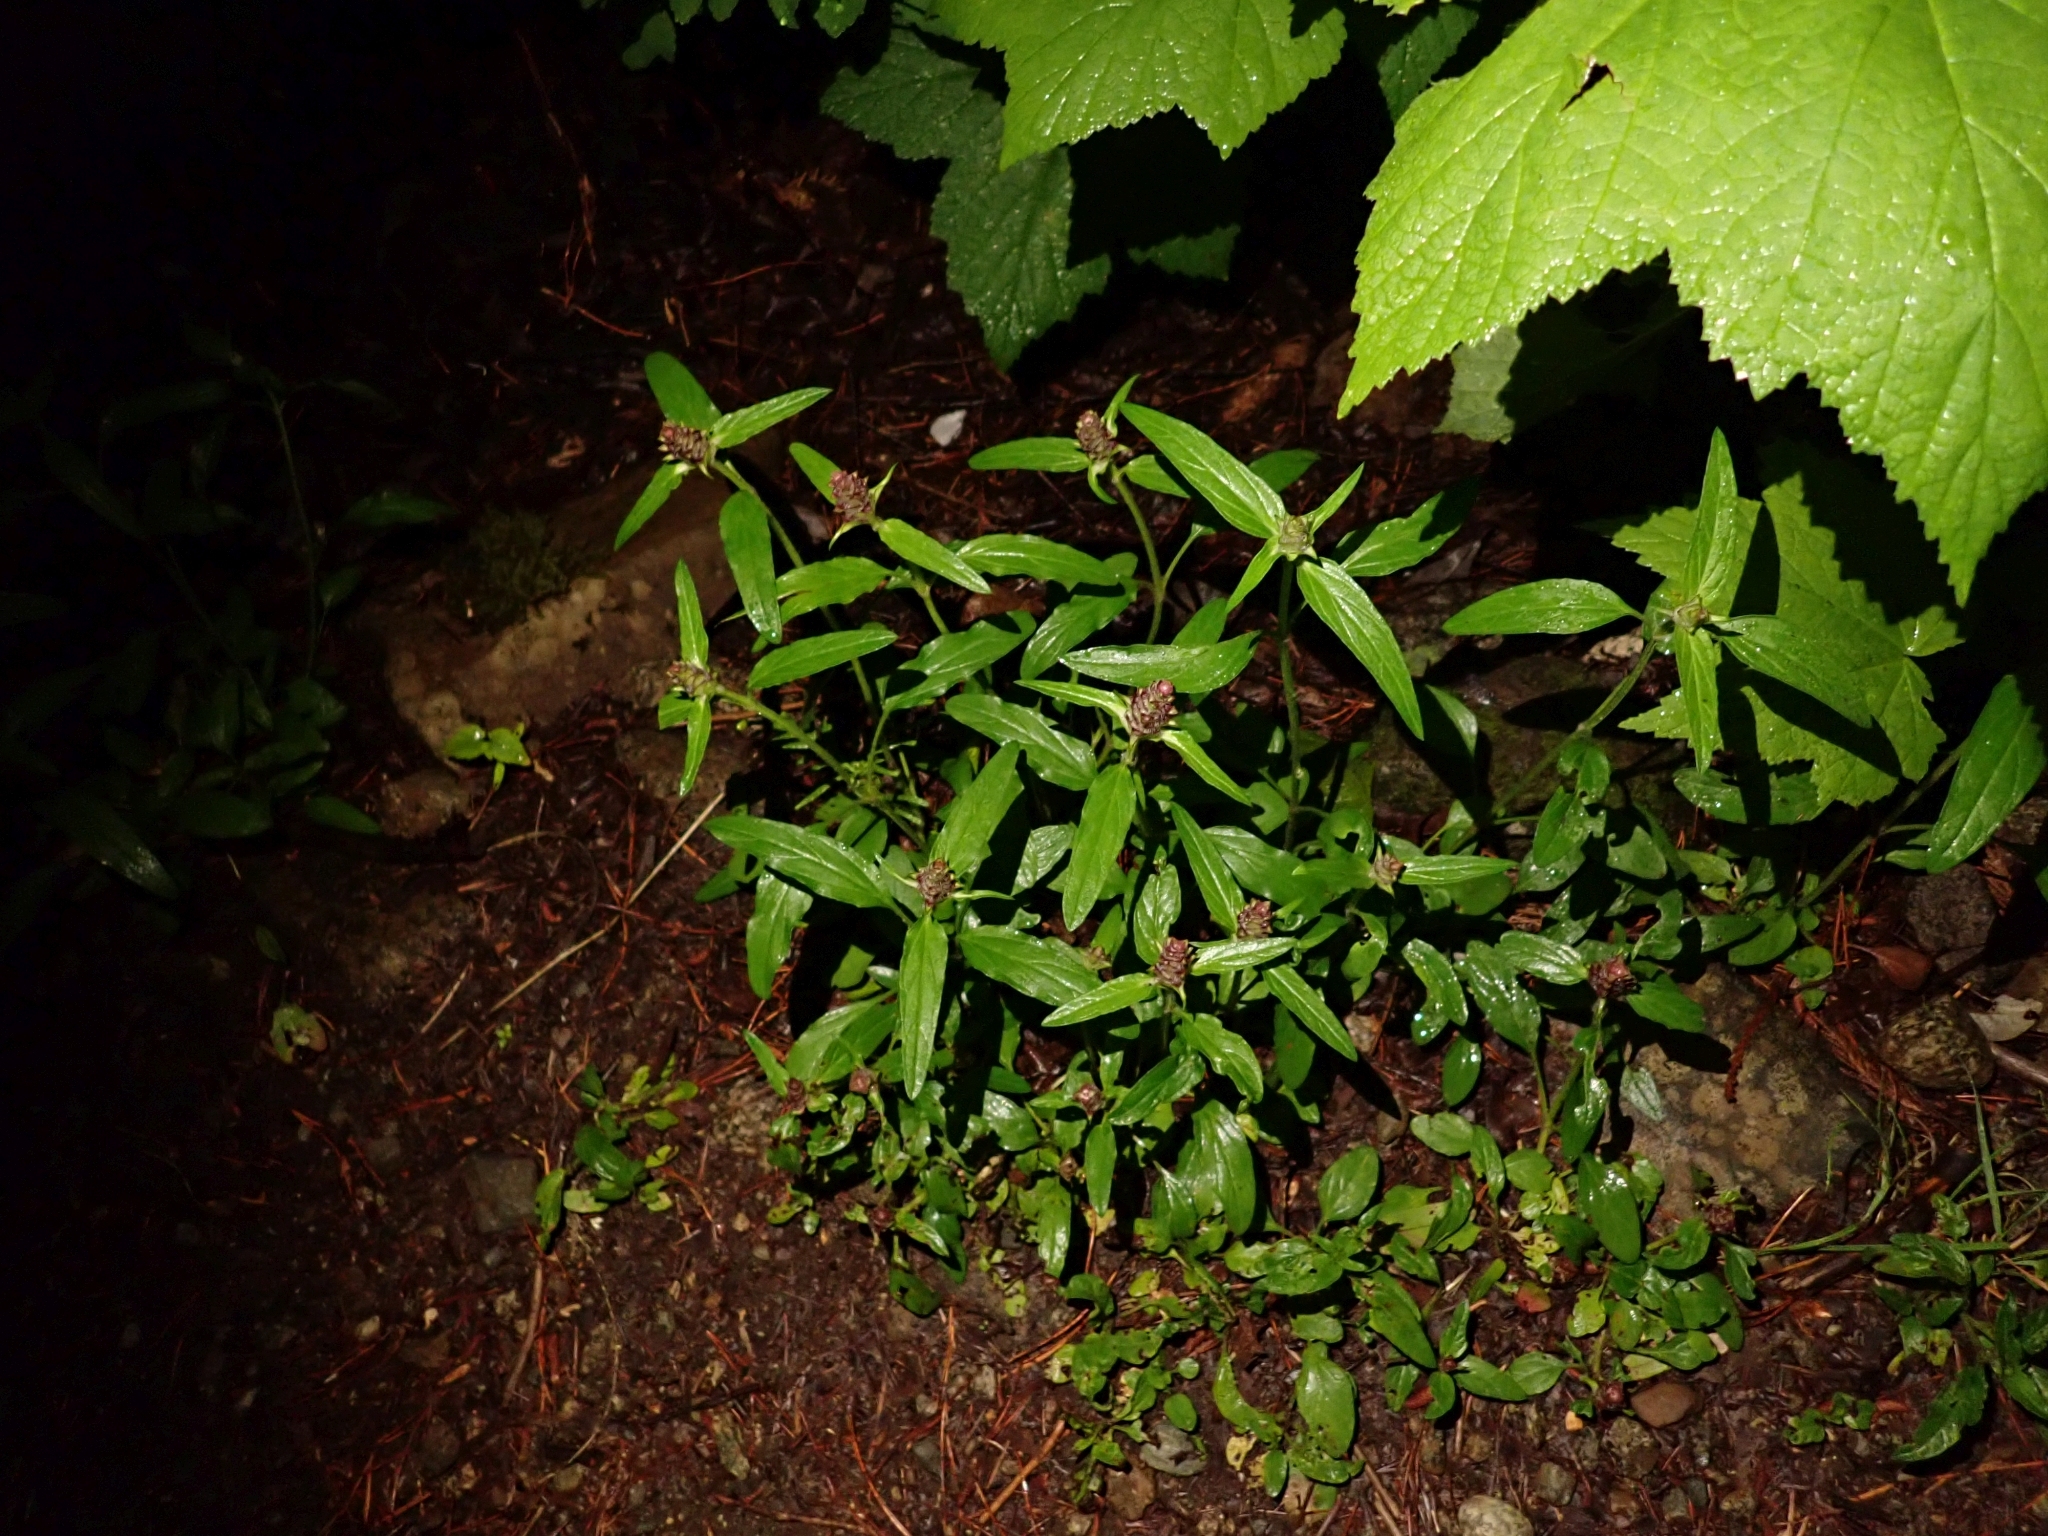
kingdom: Plantae
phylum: Tracheophyta
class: Magnoliopsida
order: Lamiales
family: Lamiaceae
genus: Prunella
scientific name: Prunella vulgaris
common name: Heal-all
